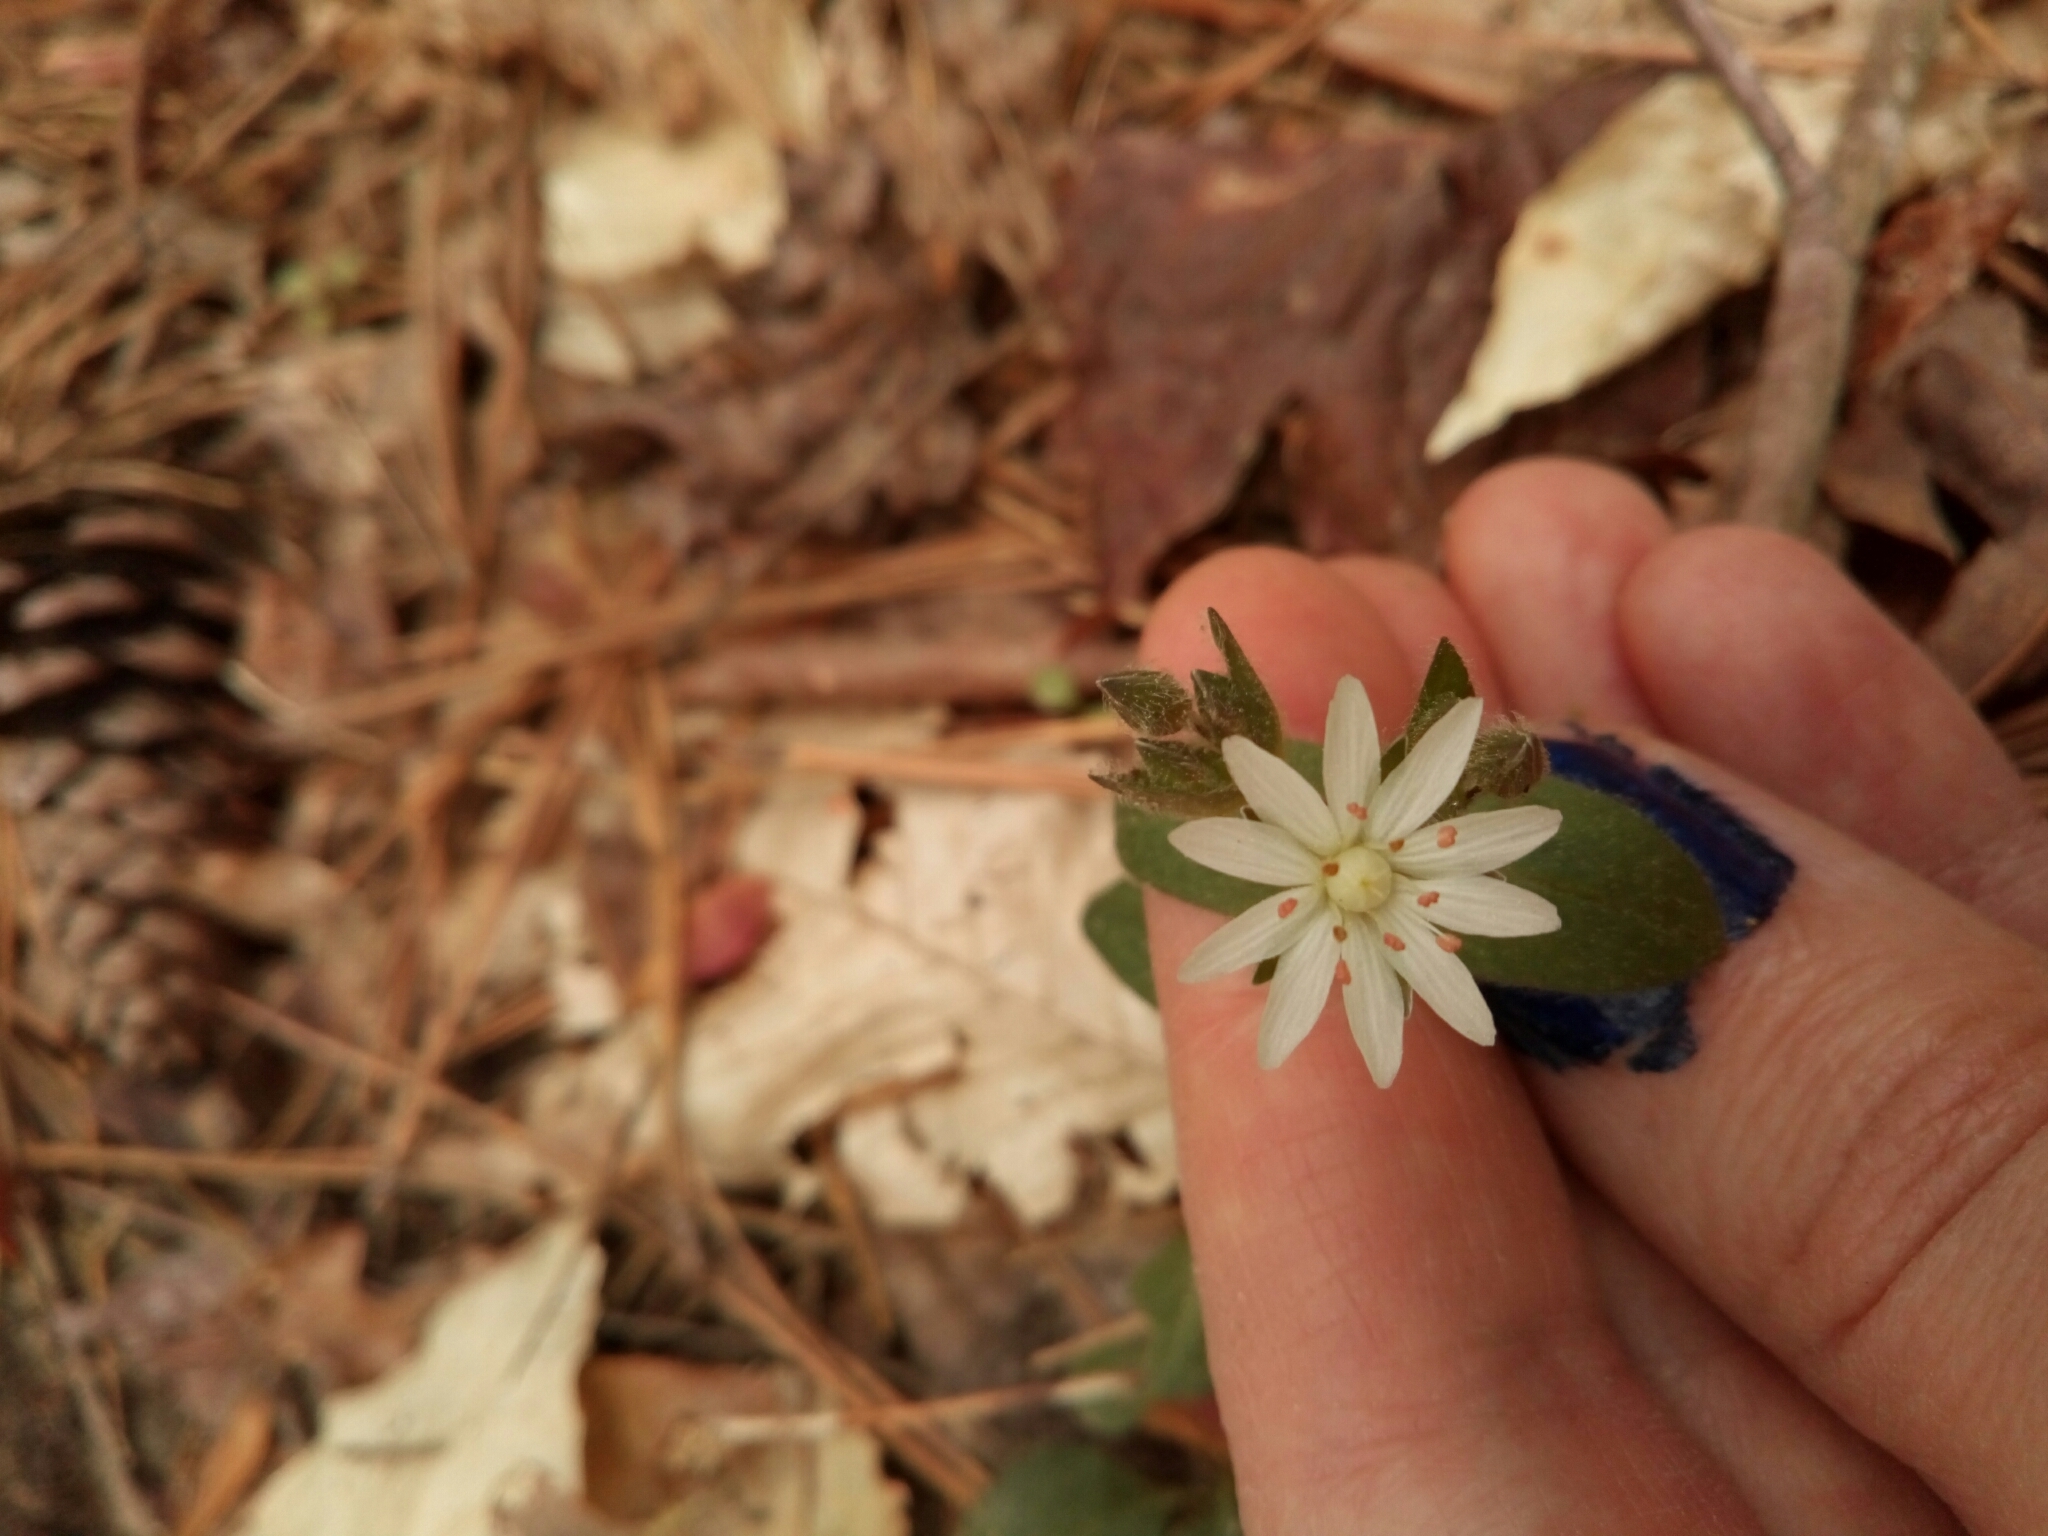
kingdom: Plantae
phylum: Tracheophyta
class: Magnoliopsida
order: Caryophyllales
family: Caryophyllaceae
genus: Stellaria
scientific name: Stellaria pubera
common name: Star chickweed
